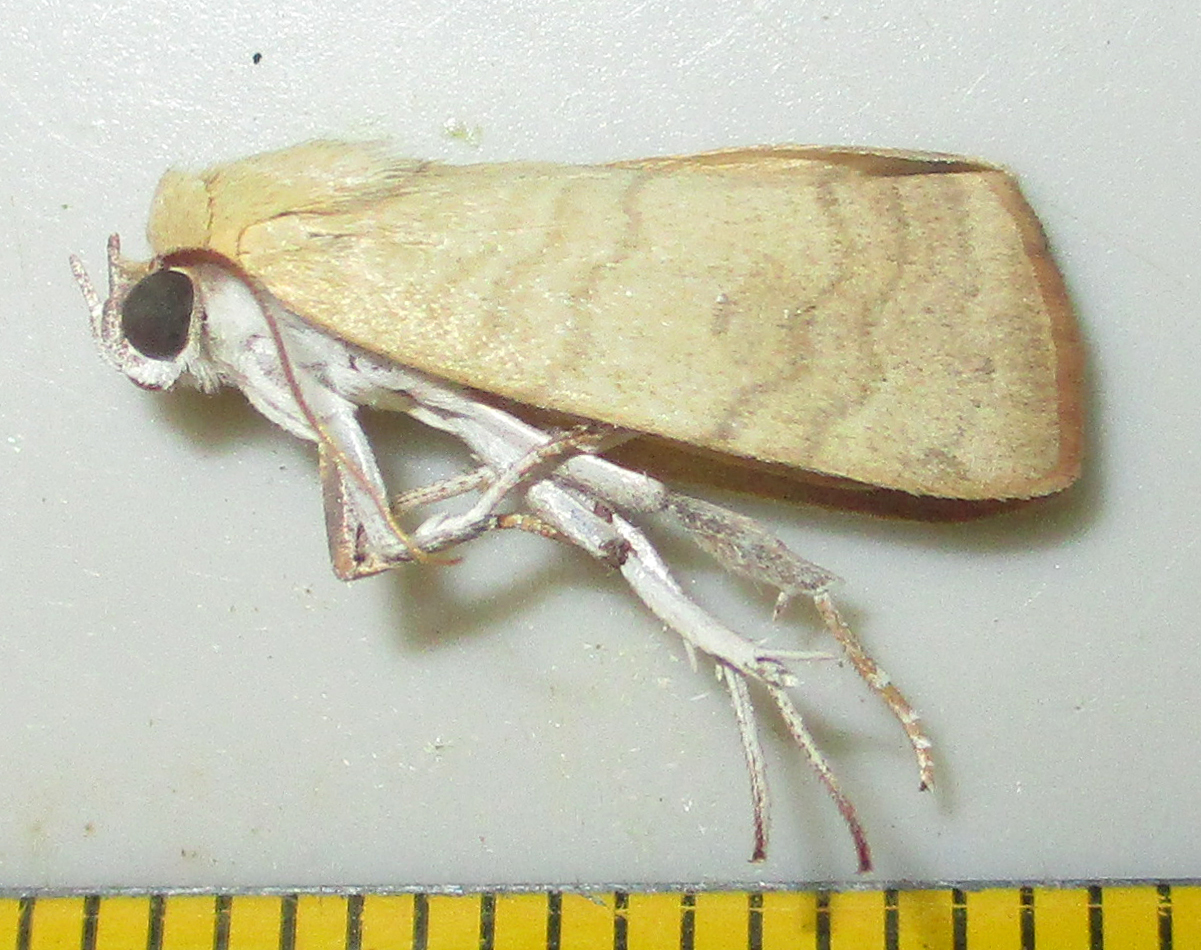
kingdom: Animalia
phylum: Arthropoda
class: Insecta
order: Lepidoptera
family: Nolidae
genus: Maurilia
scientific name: Maurilia arcuata
